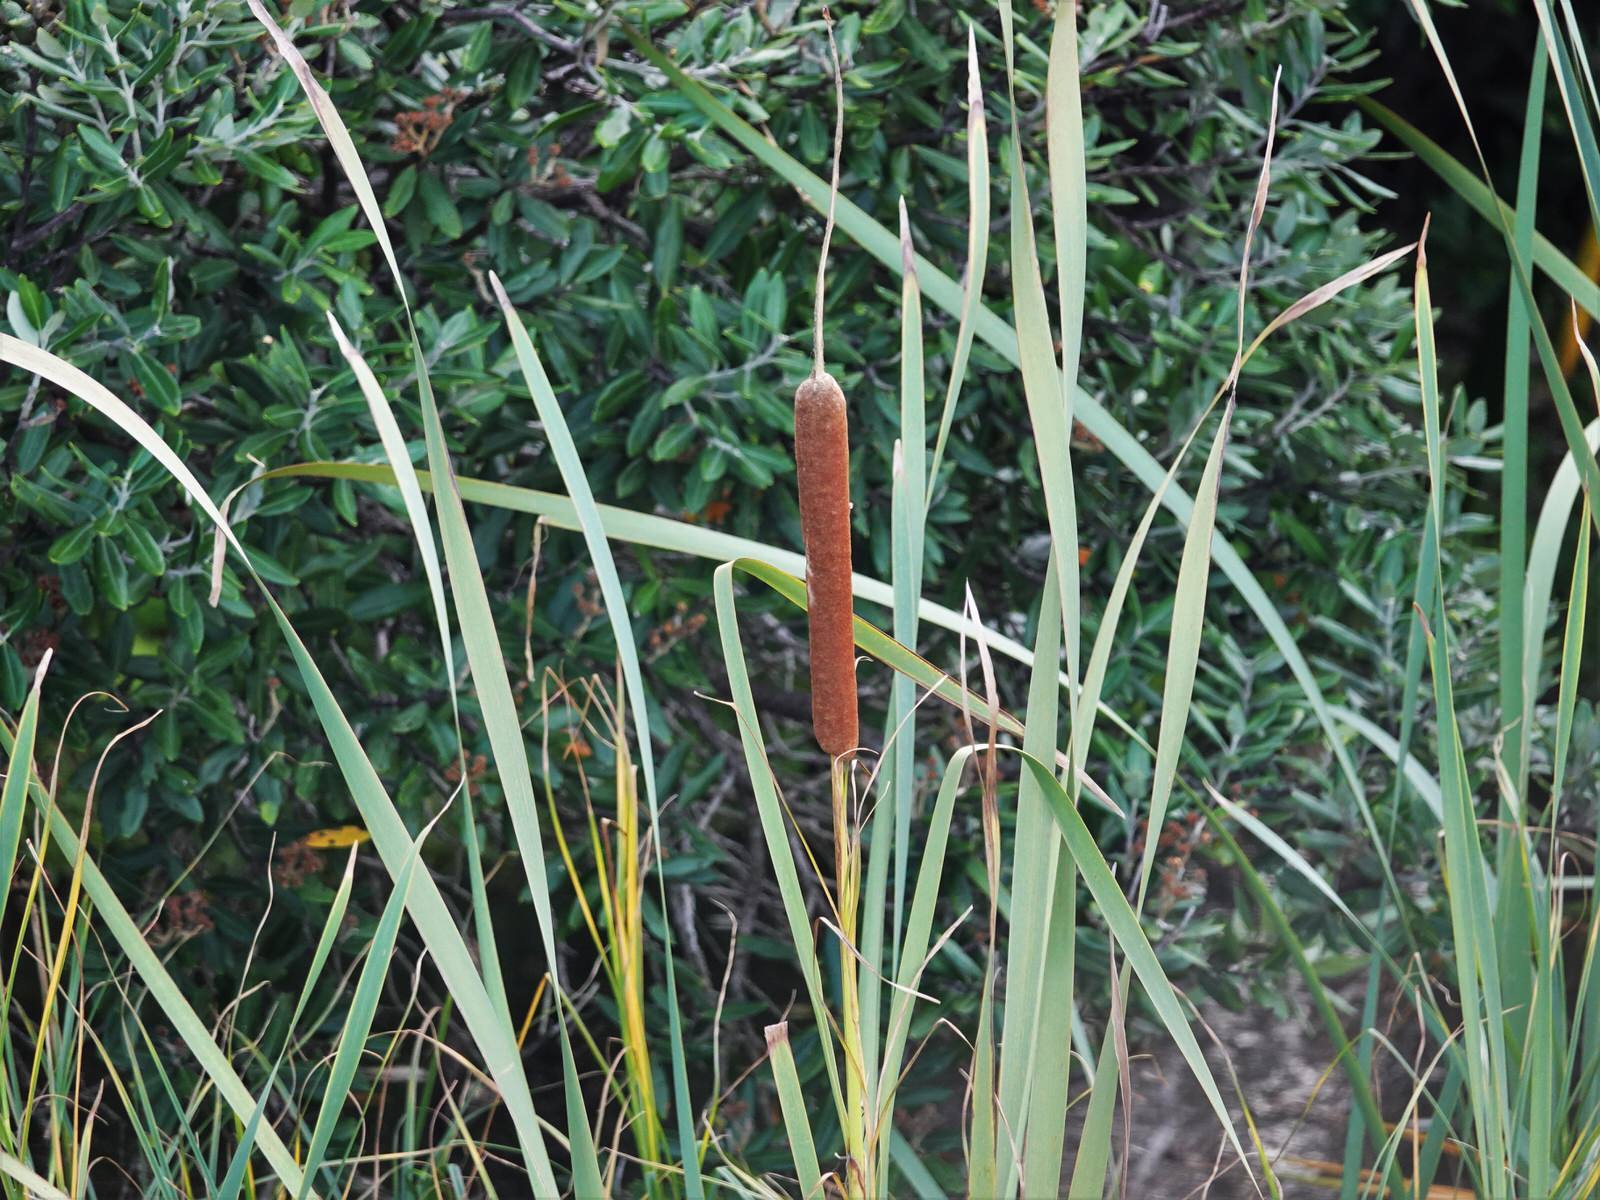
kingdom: Plantae
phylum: Tracheophyta
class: Liliopsida
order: Poales
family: Typhaceae
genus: Typha
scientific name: Typha orientalis
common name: Bullrush
